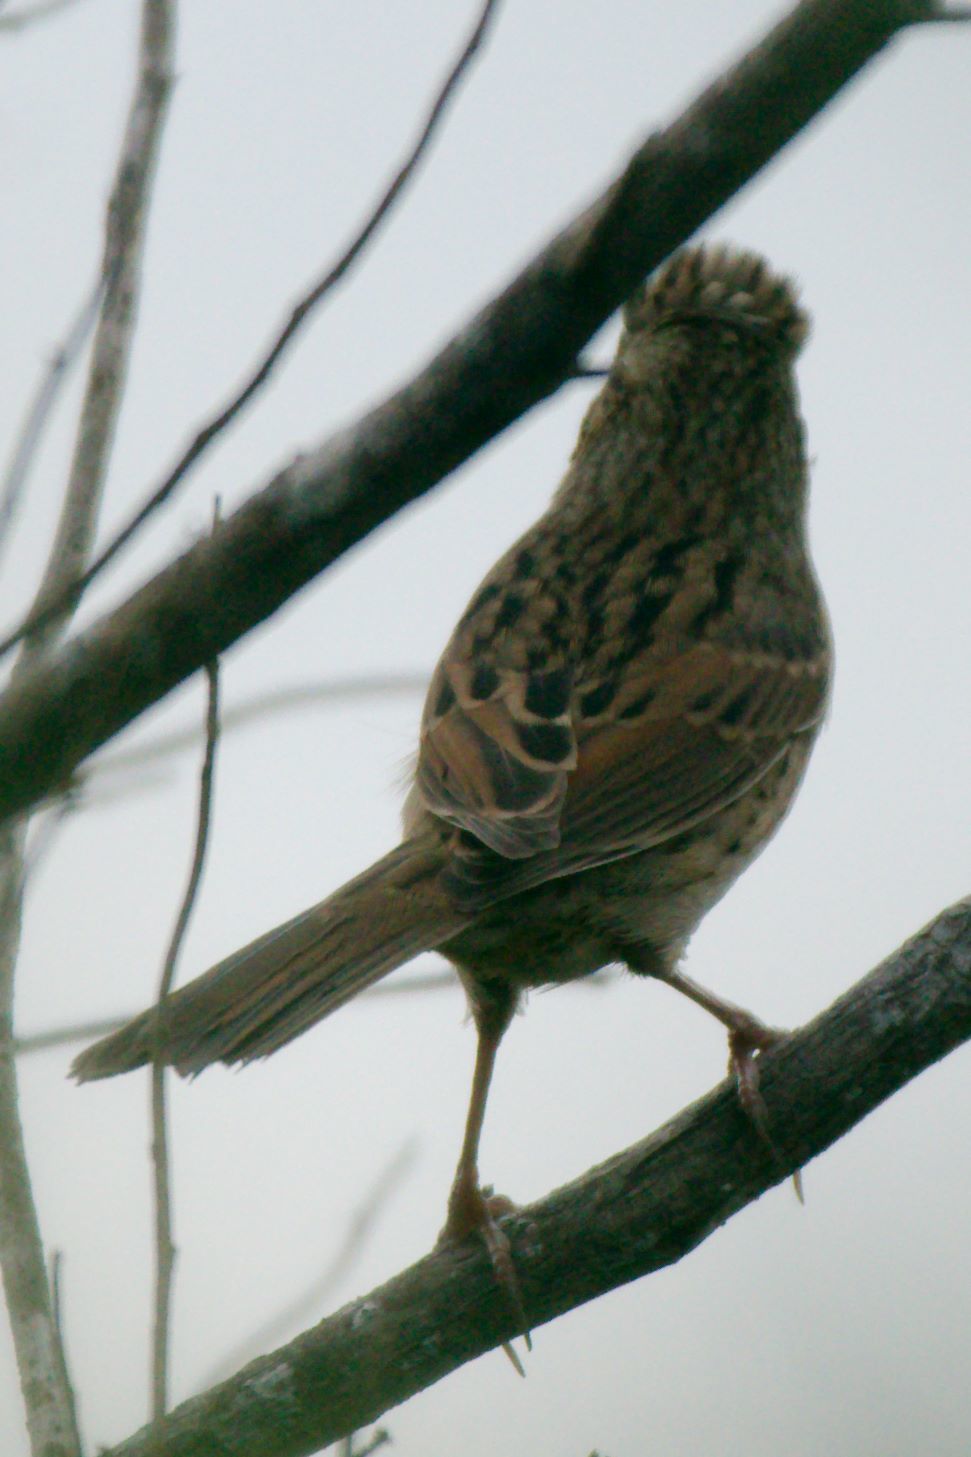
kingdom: Animalia
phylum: Chordata
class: Aves
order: Passeriformes
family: Passerellidae
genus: Melospiza
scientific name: Melospiza lincolnii
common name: Lincoln's sparrow
